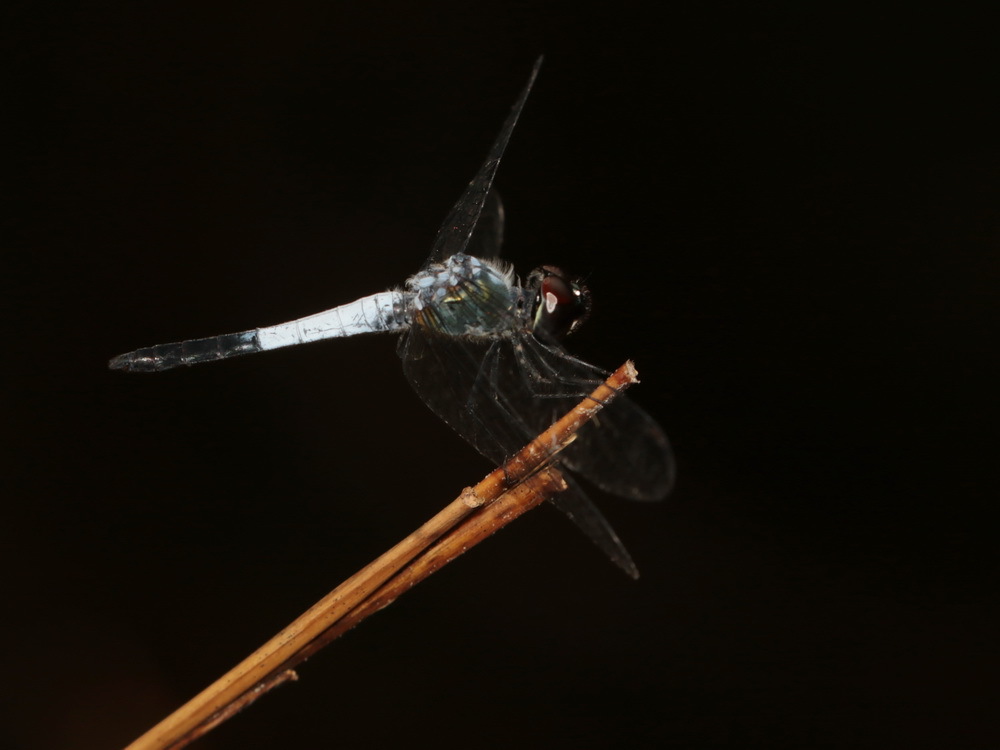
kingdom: Animalia
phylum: Arthropoda
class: Insecta
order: Odonata
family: Libellulidae
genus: Brachydiplax
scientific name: Brachydiplax farinosa
